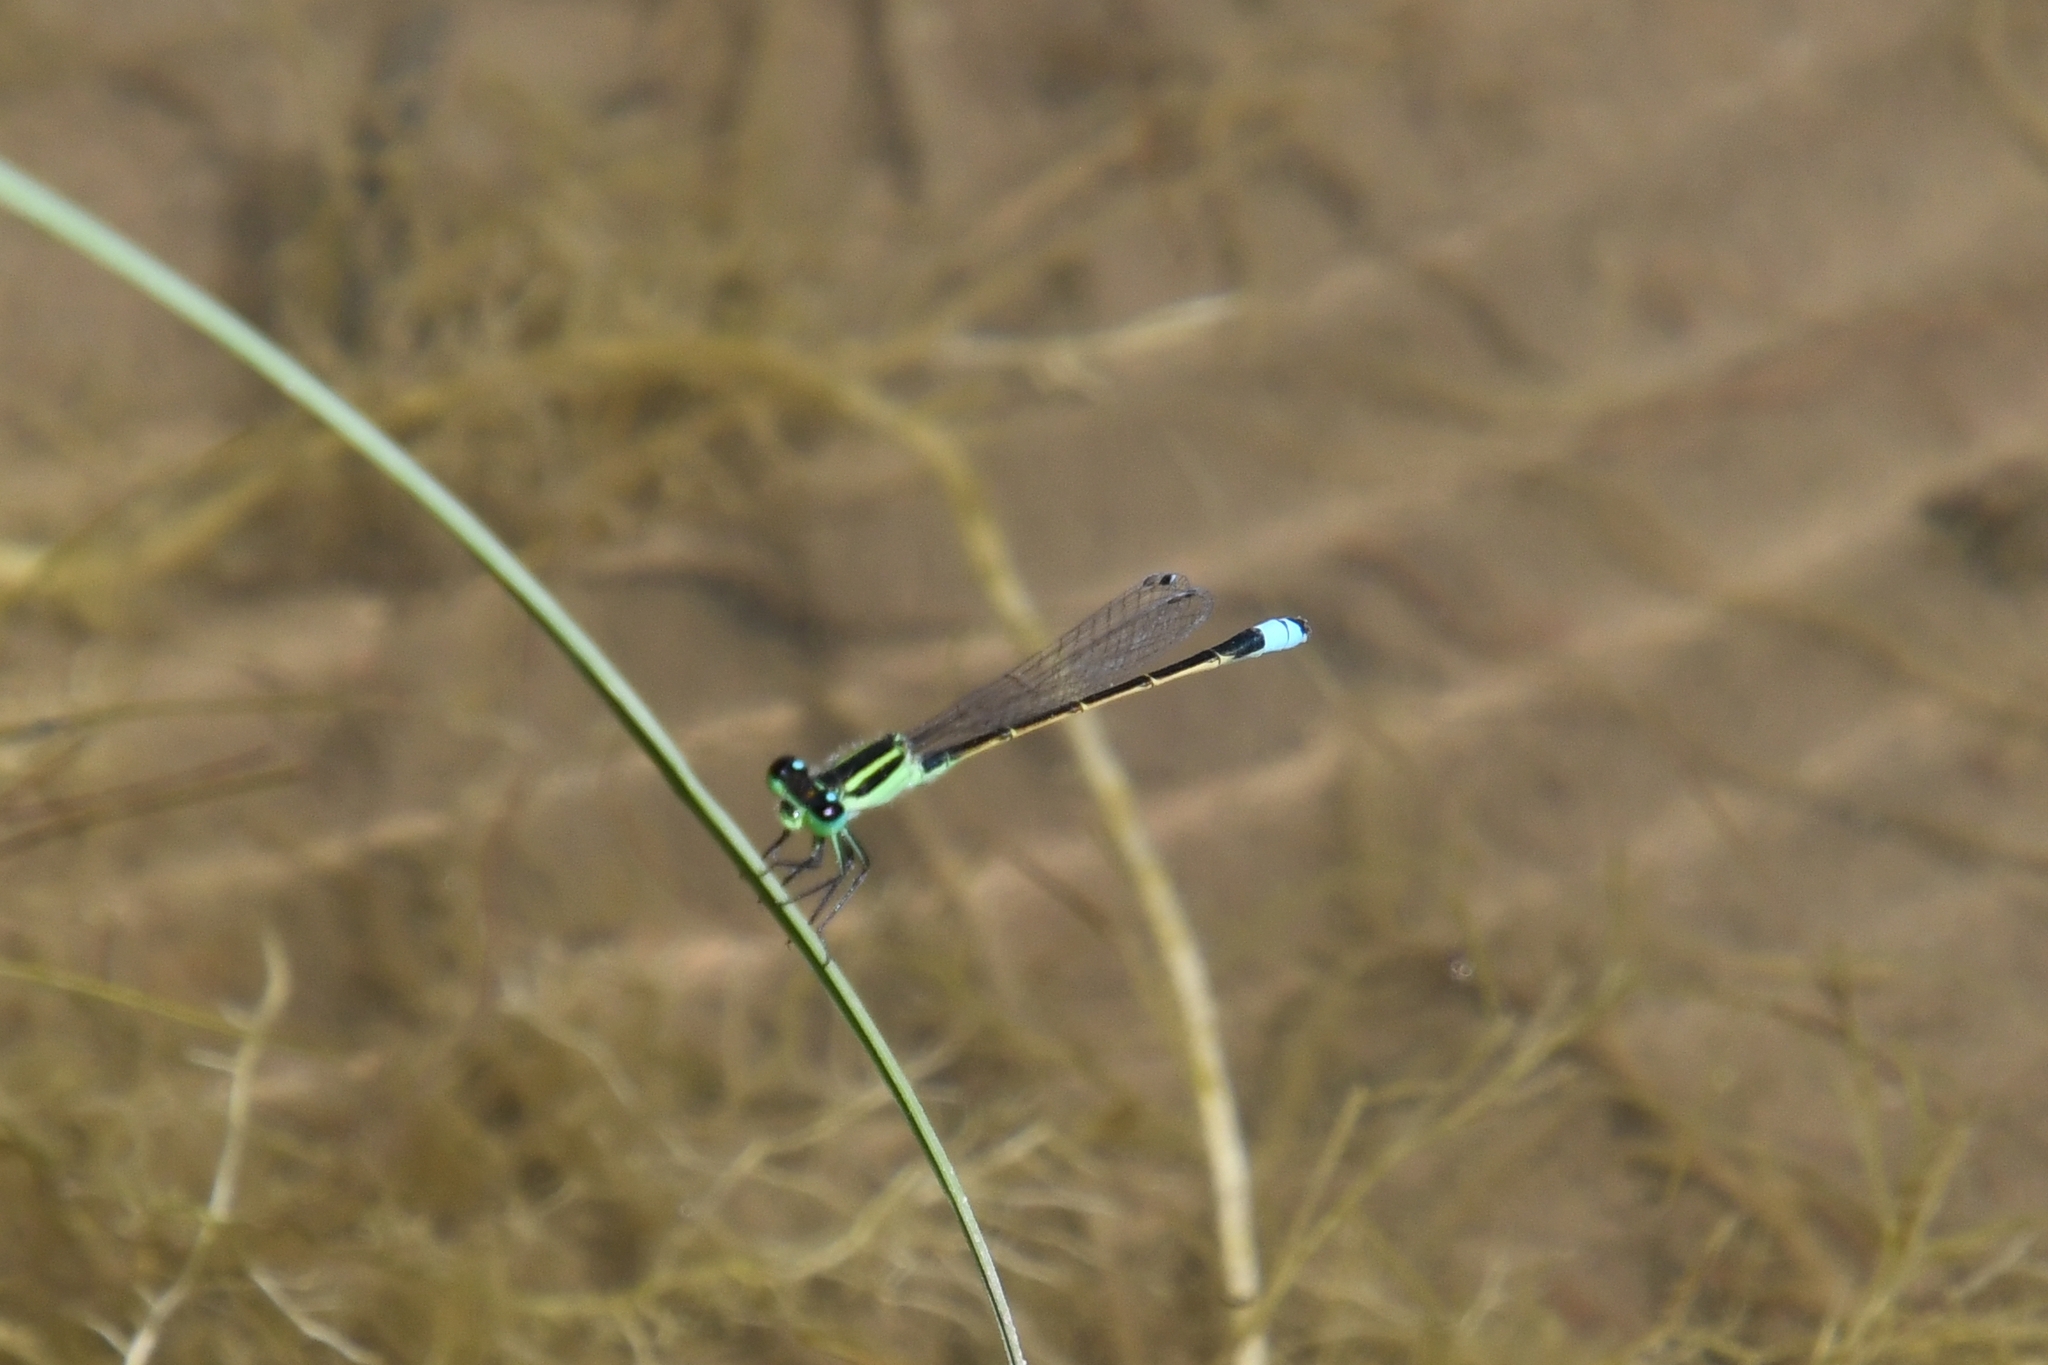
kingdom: Animalia
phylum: Arthropoda
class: Insecta
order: Odonata
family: Coenagrionidae
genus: Ischnura
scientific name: Ischnura ramburii
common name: Rambur's forktail
